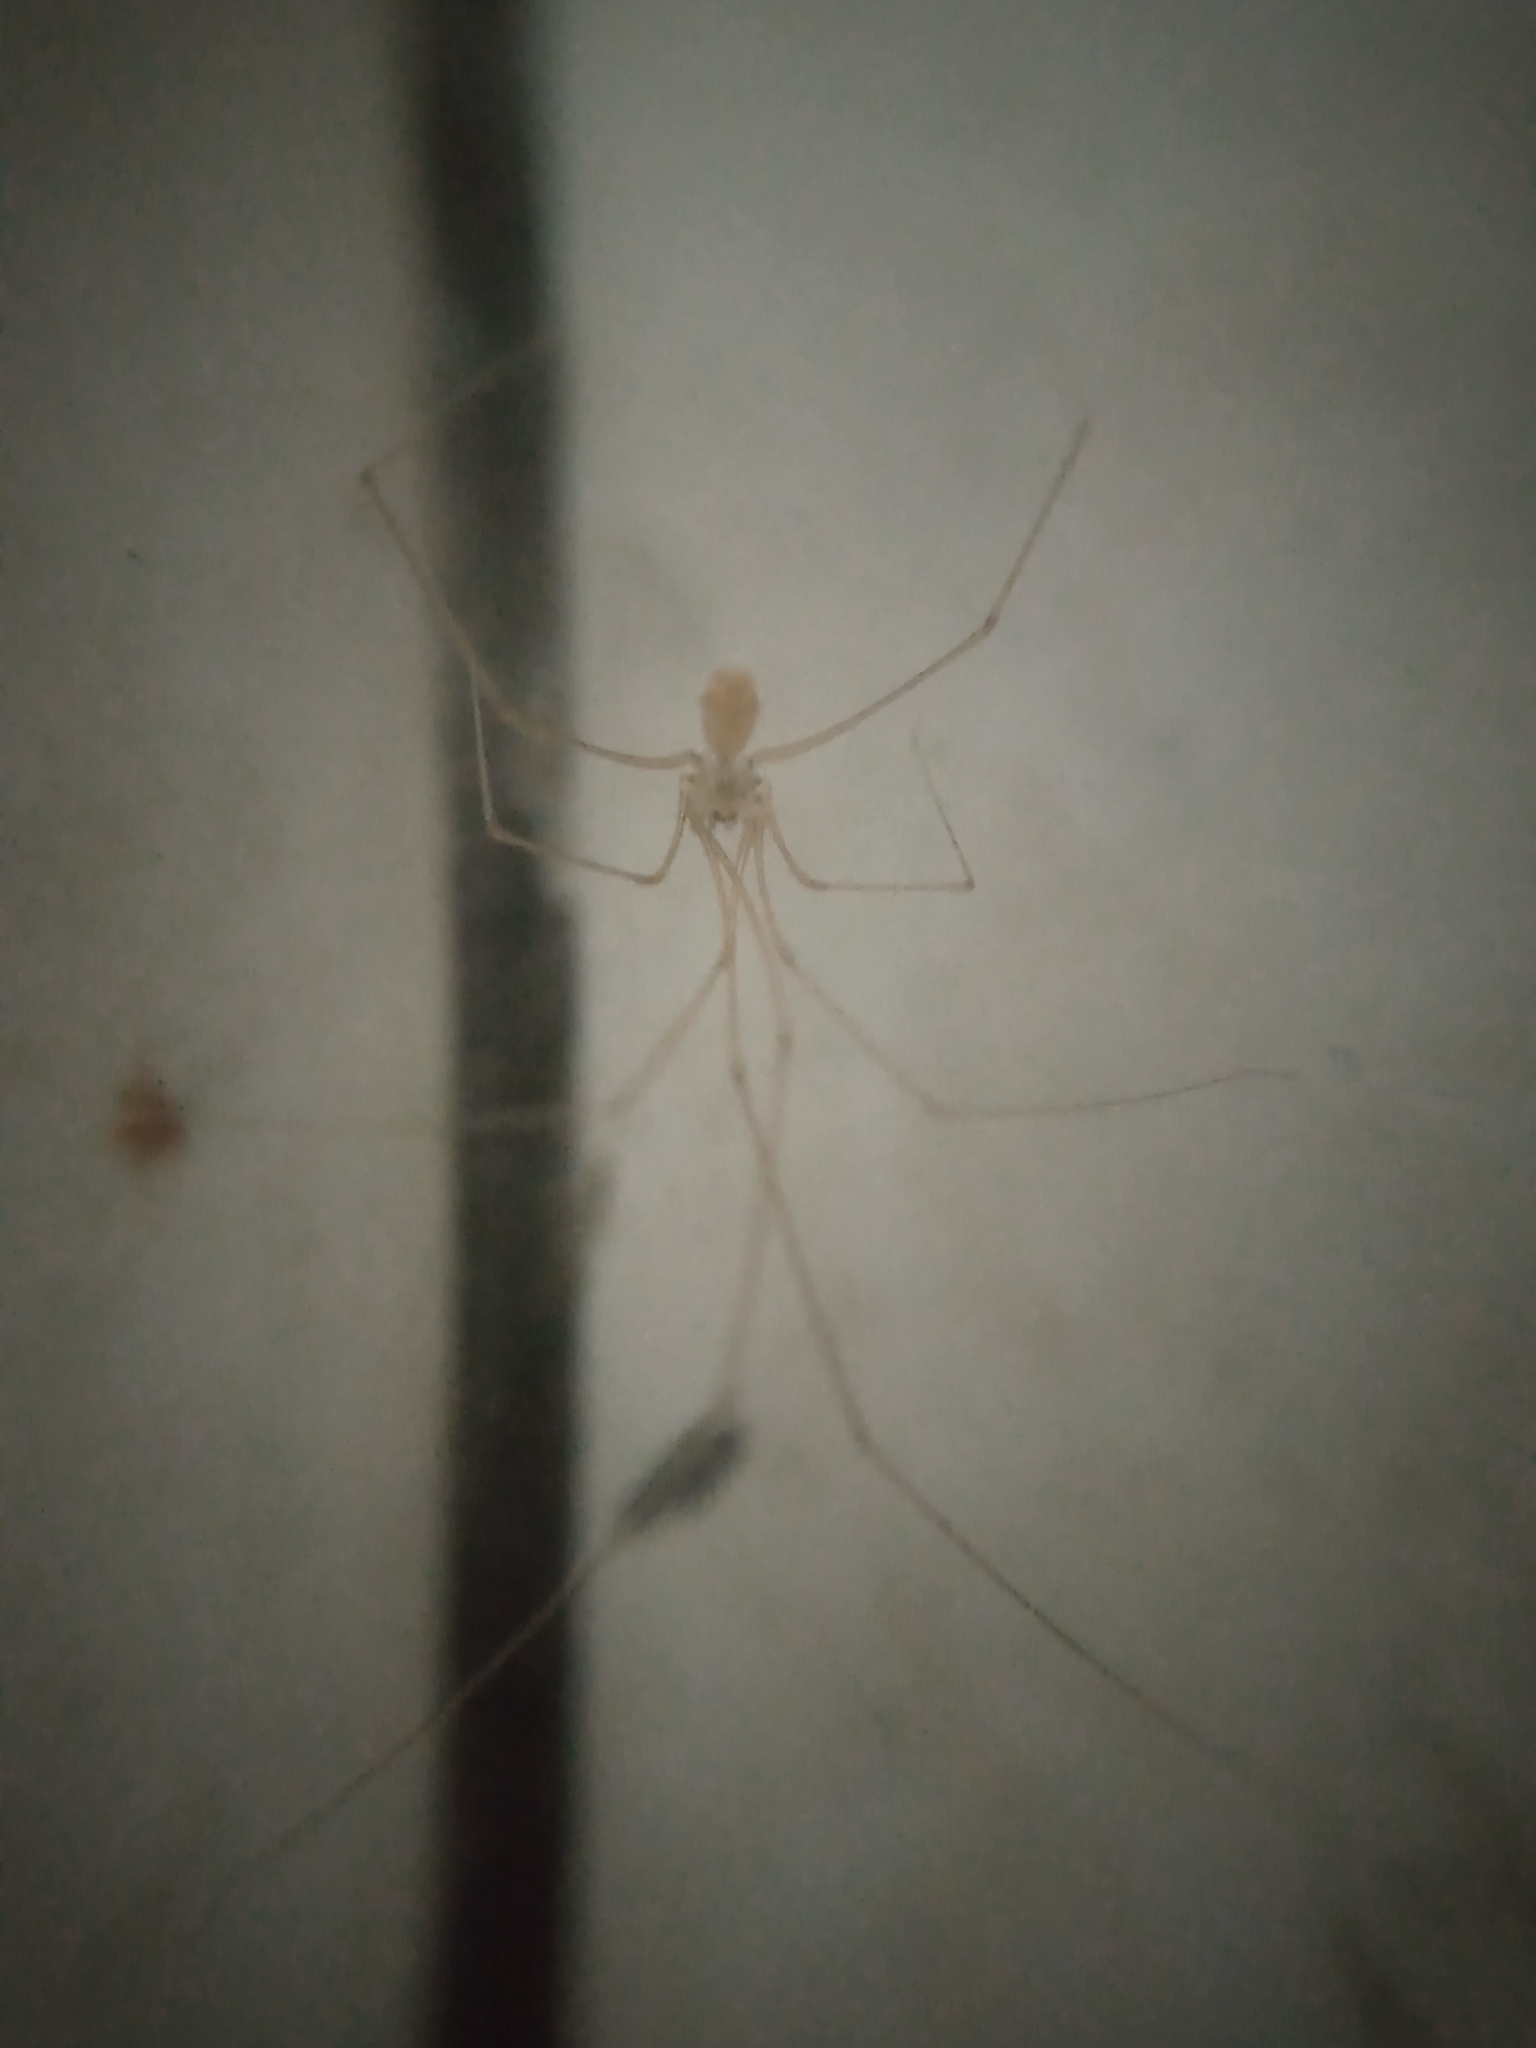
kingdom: Animalia
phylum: Arthropoda
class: Arachnida
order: Araneae
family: Pholcidae
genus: Micropholcus
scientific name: Micropholcus fauroti
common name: Cellar spider
